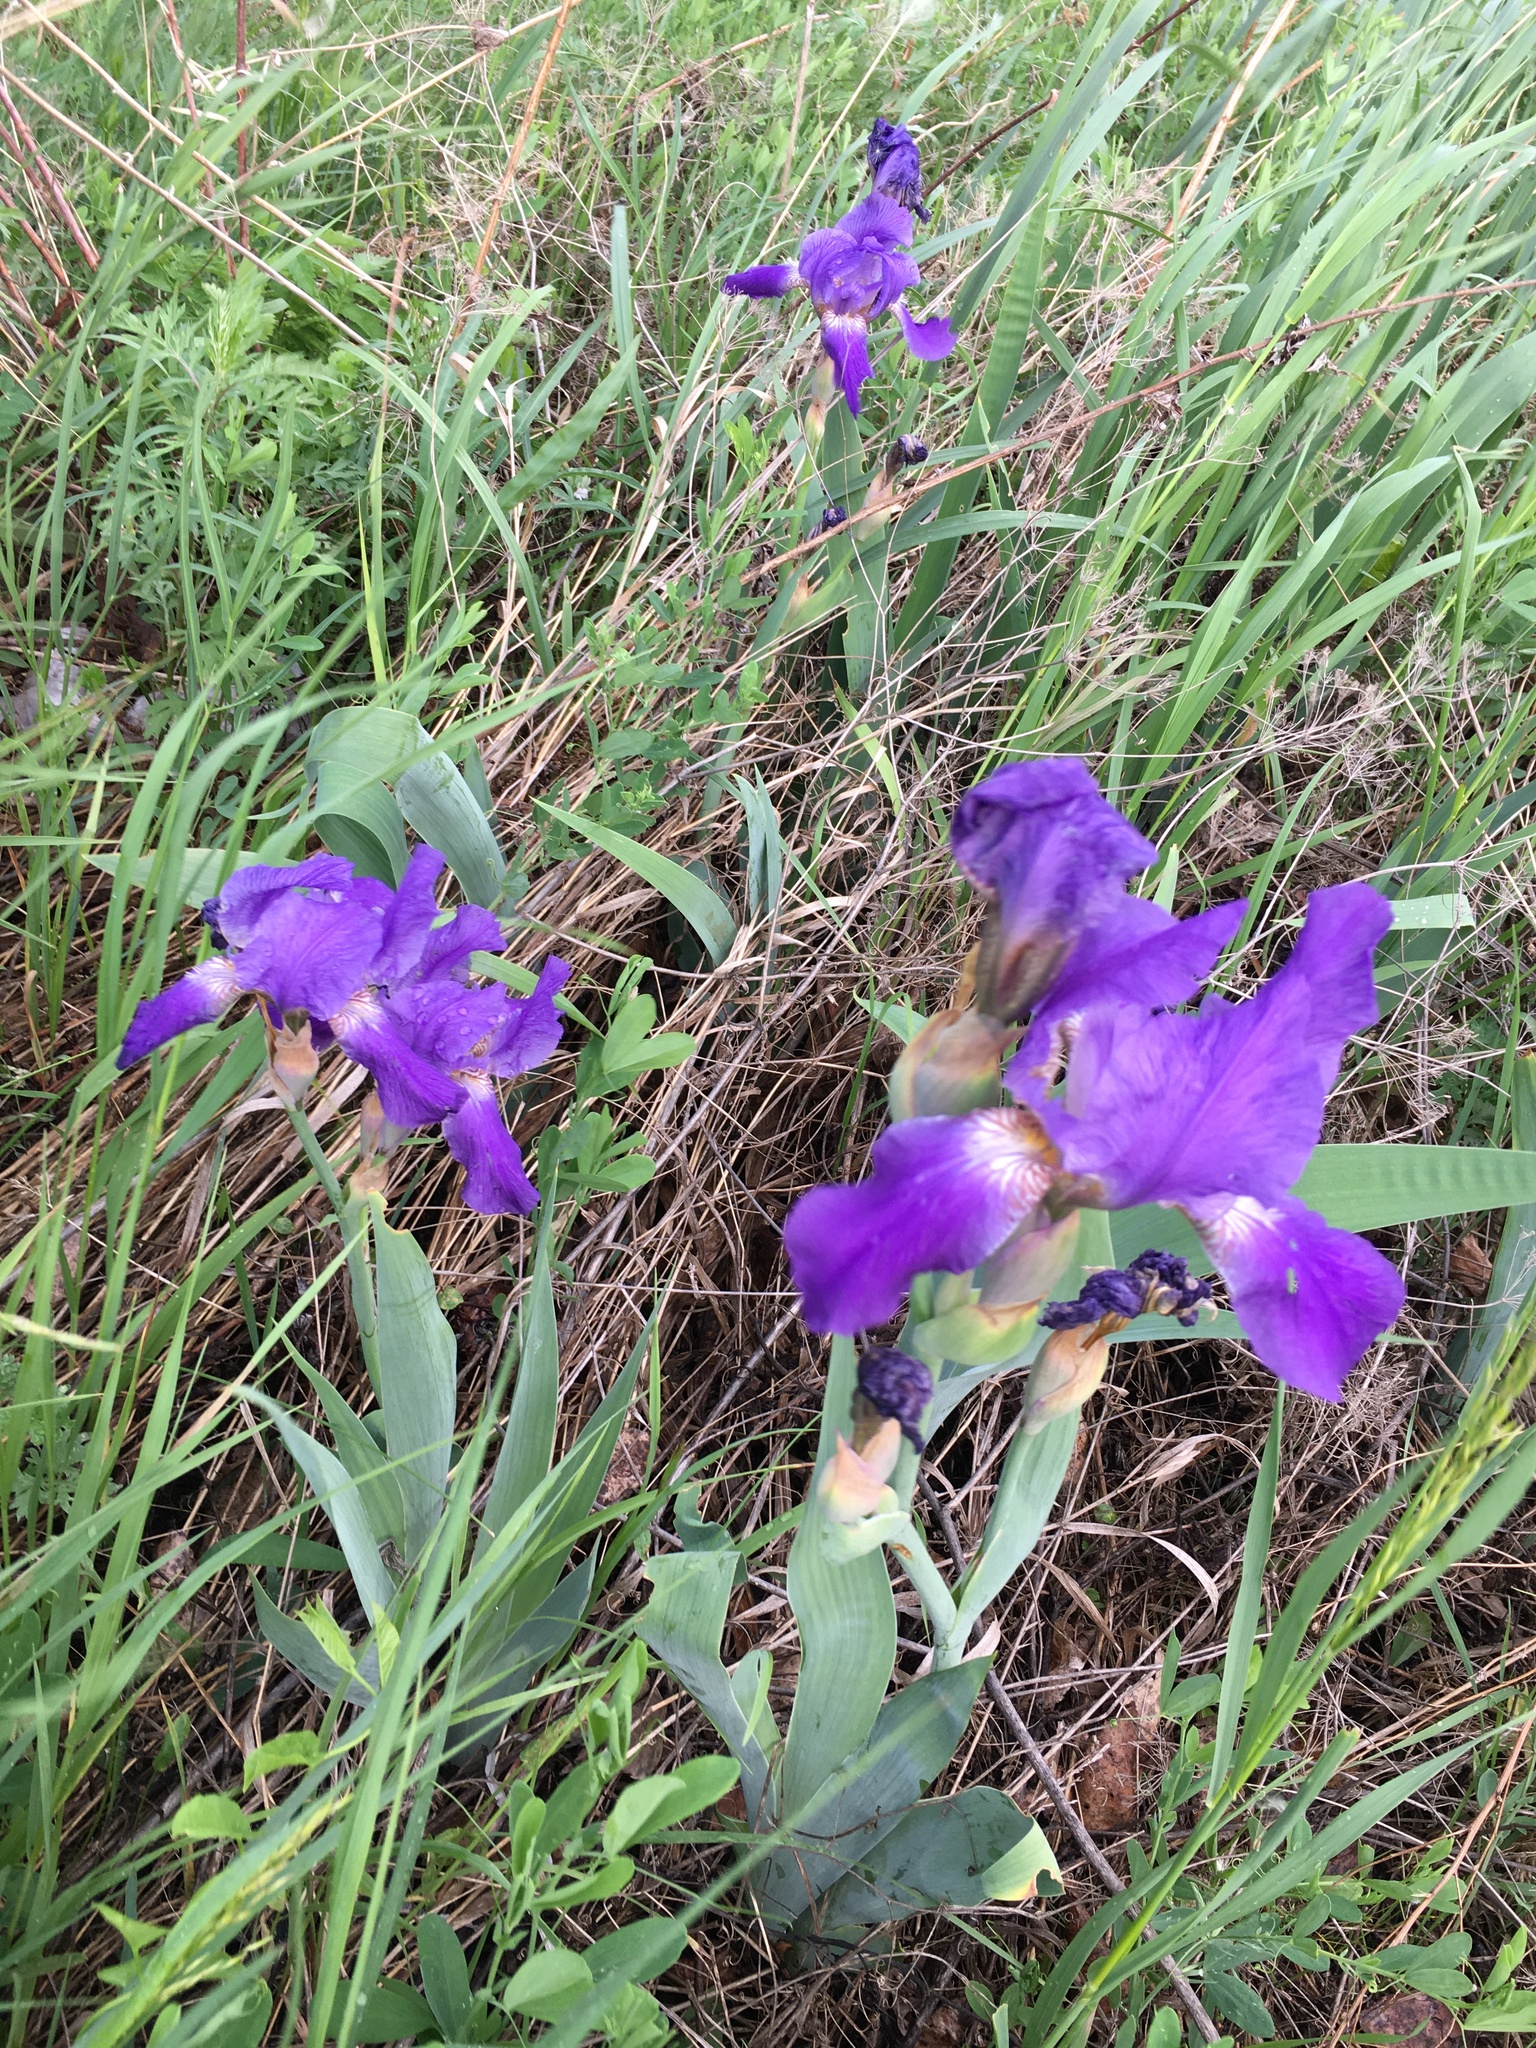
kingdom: Plantae
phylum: Tracheophyta
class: Liliopsida
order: Asparagales
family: Iridaceae
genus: Iris
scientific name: Iris aphylla
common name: Stool iris
